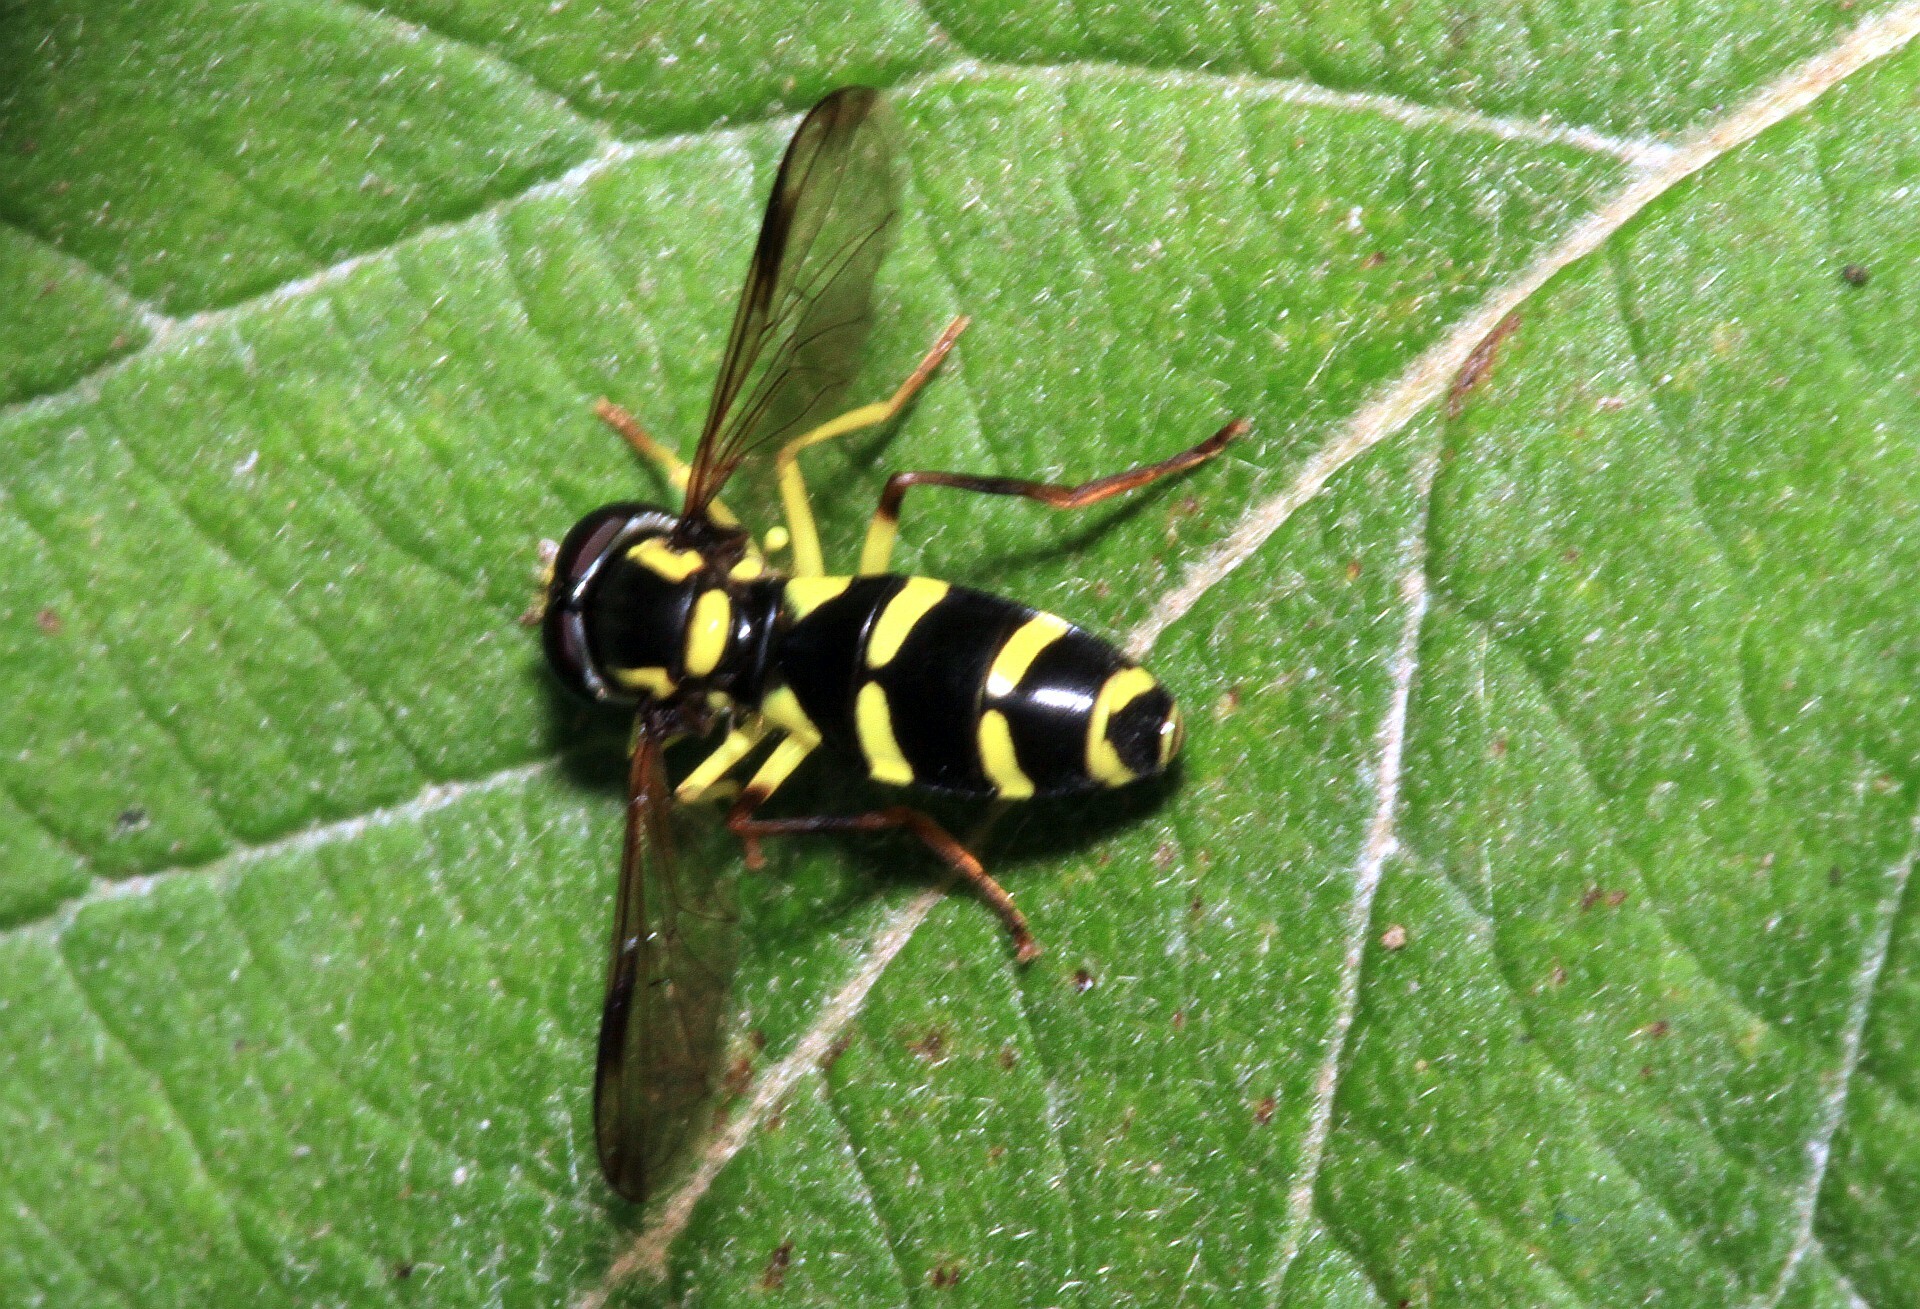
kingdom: Animalia
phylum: Arthropoda
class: Insecta
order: Diptera
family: Syrphidae
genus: Philhelius
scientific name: Philhelius dives
